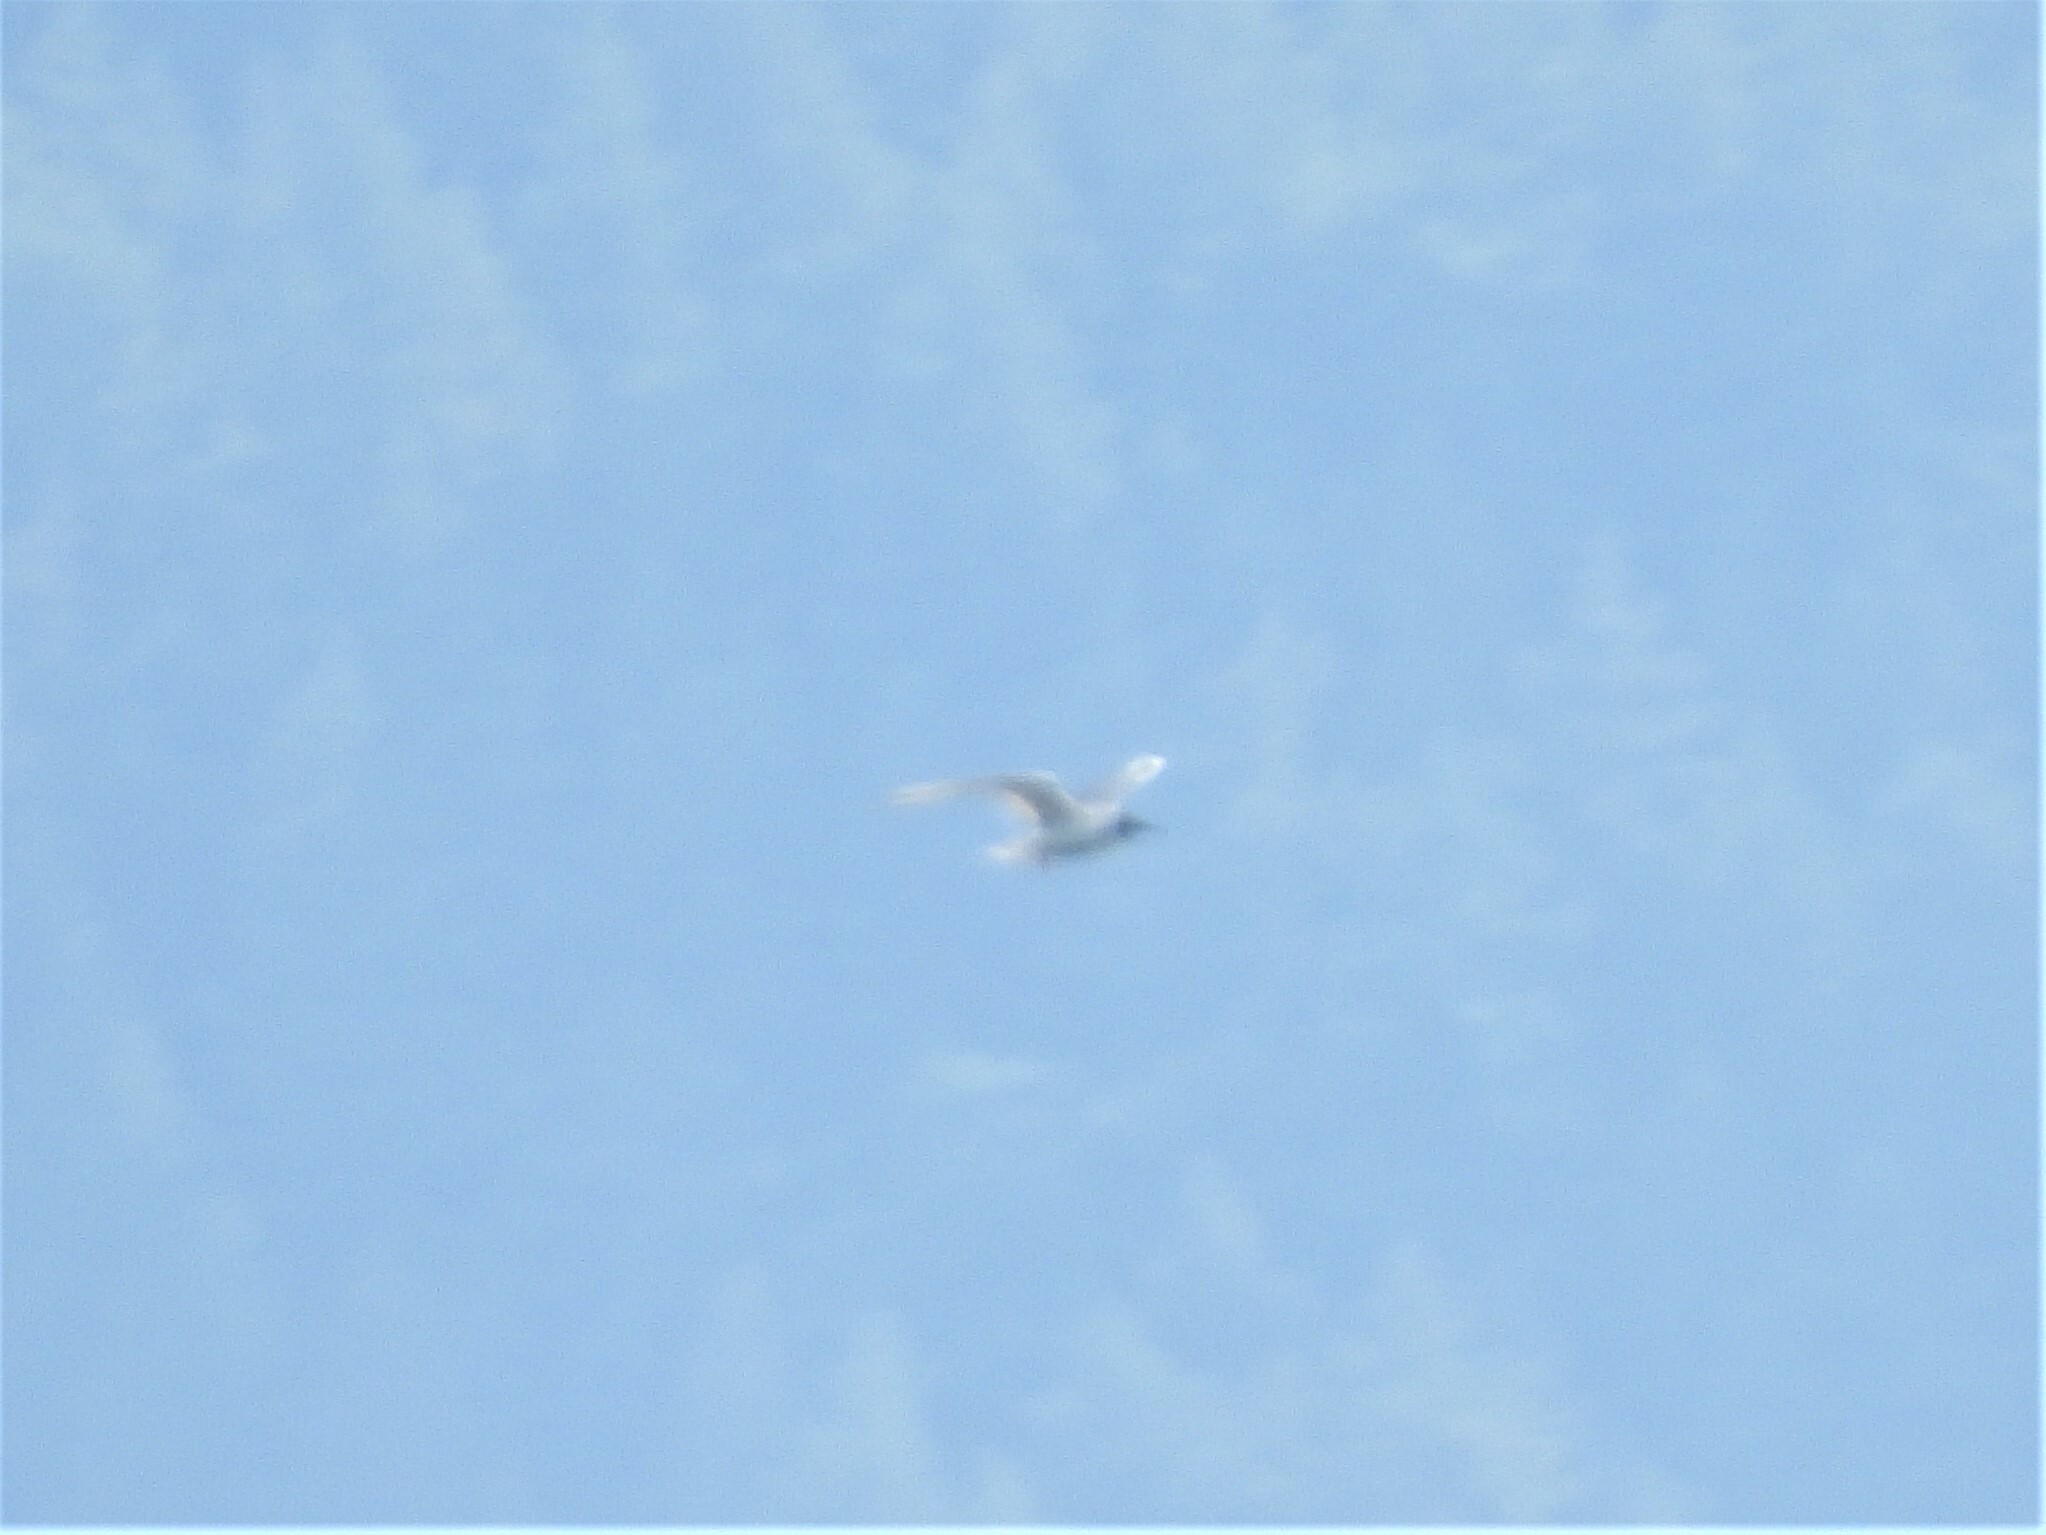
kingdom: Animalia
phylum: Chordata
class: Aves
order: Charadriiformes
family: Laridae
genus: Chroicocephalus
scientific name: Chroicocephalus philadelphia
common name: Bonaparte's gull
